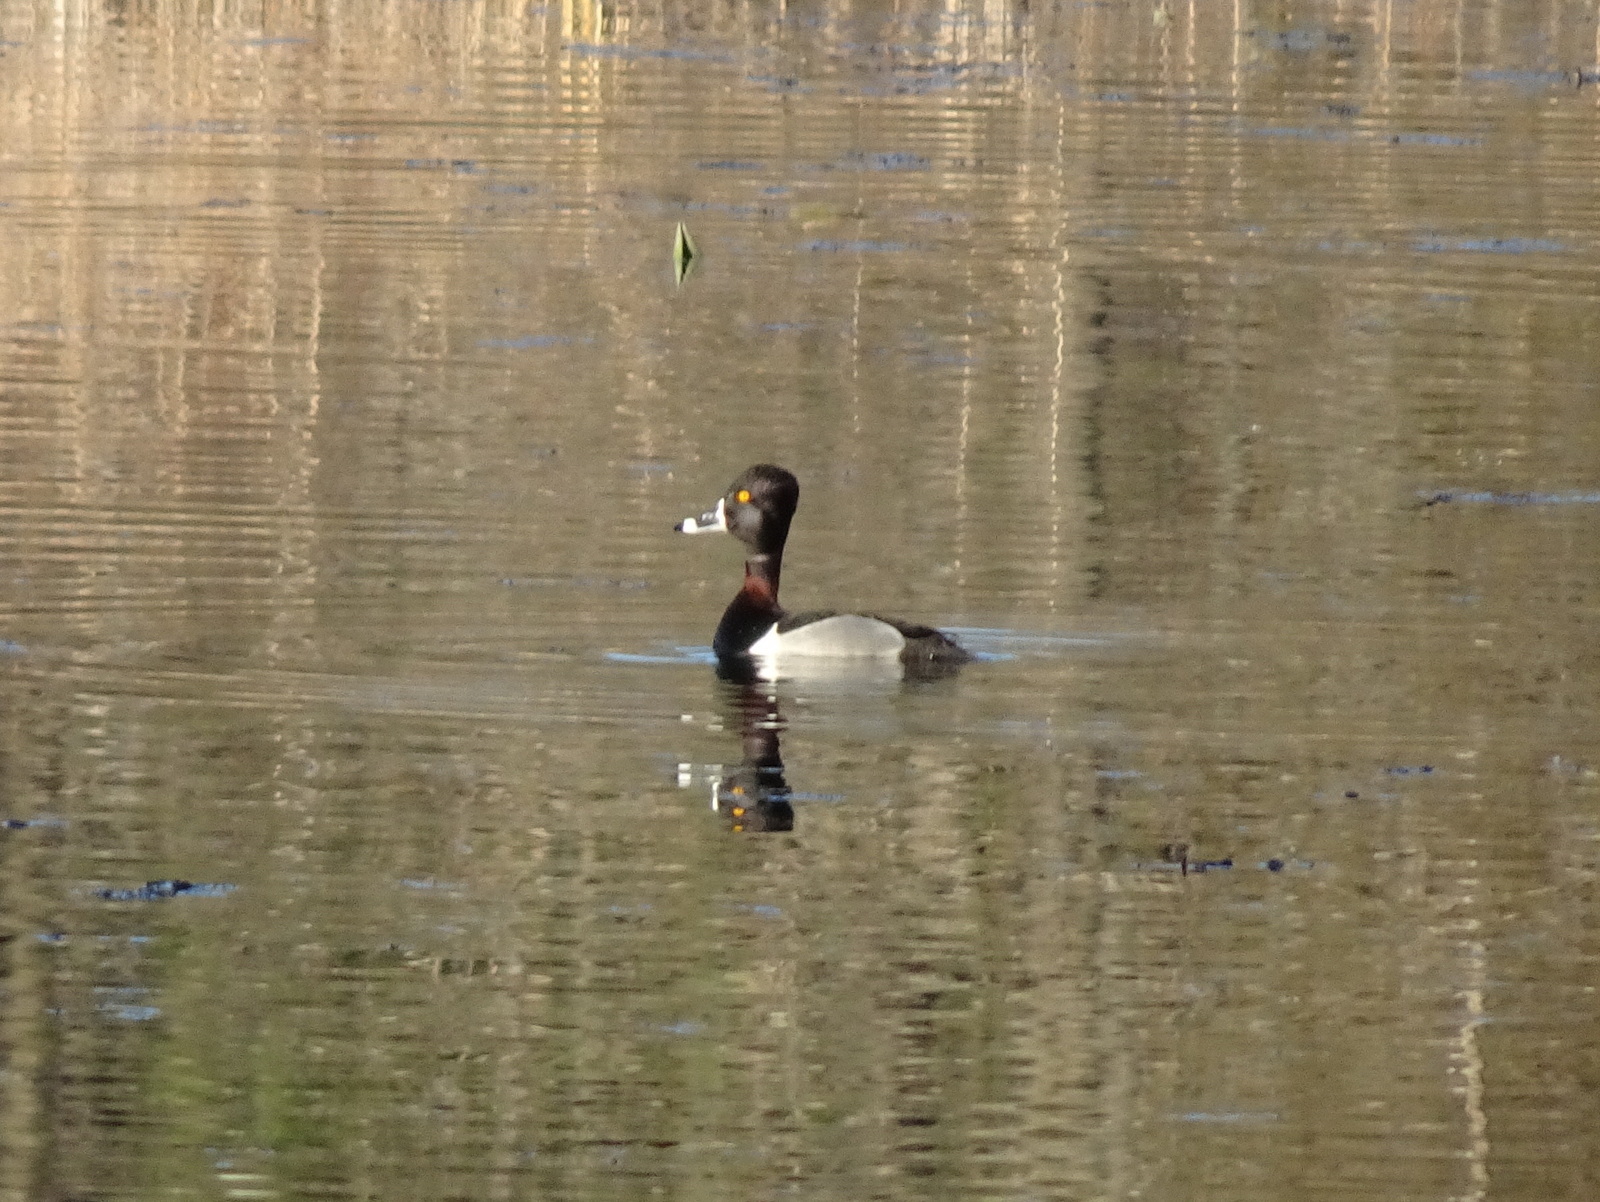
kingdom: Animalia
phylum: Chordata
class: Aves
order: Anseriformes
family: Anatidae
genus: Aythya
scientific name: Aythya collaris
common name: Ring-necked duck
